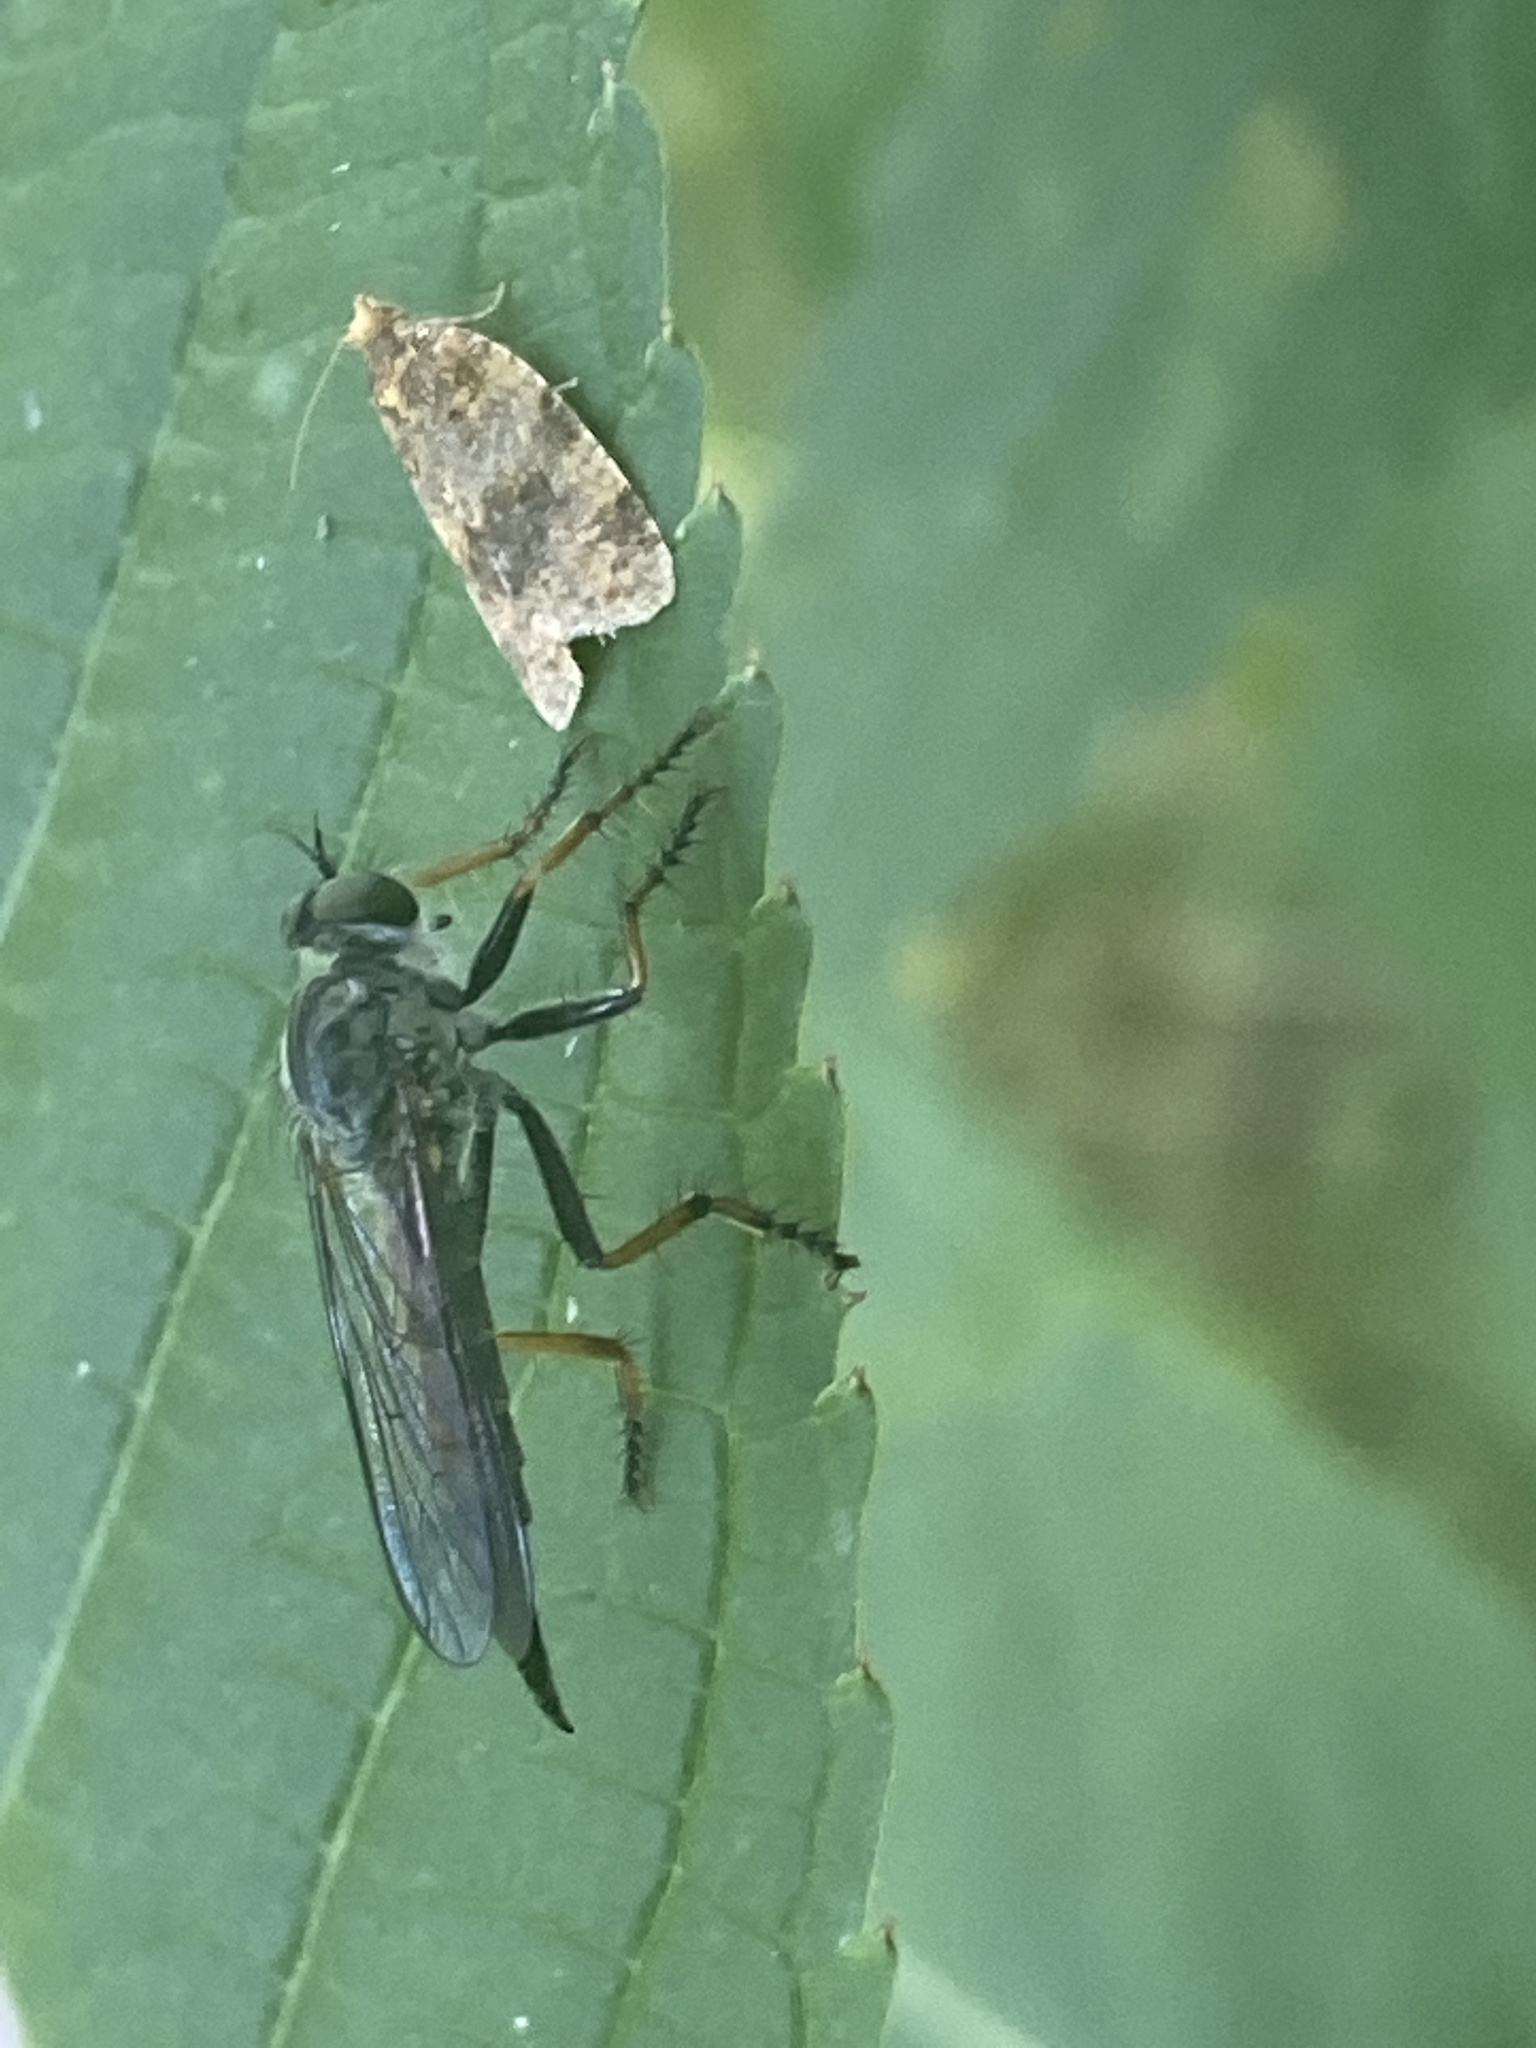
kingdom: Animalia
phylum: Arthropoda
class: Insecta
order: Diptera
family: Asilidae
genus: Paritamus
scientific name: Paritamus geniculatus
